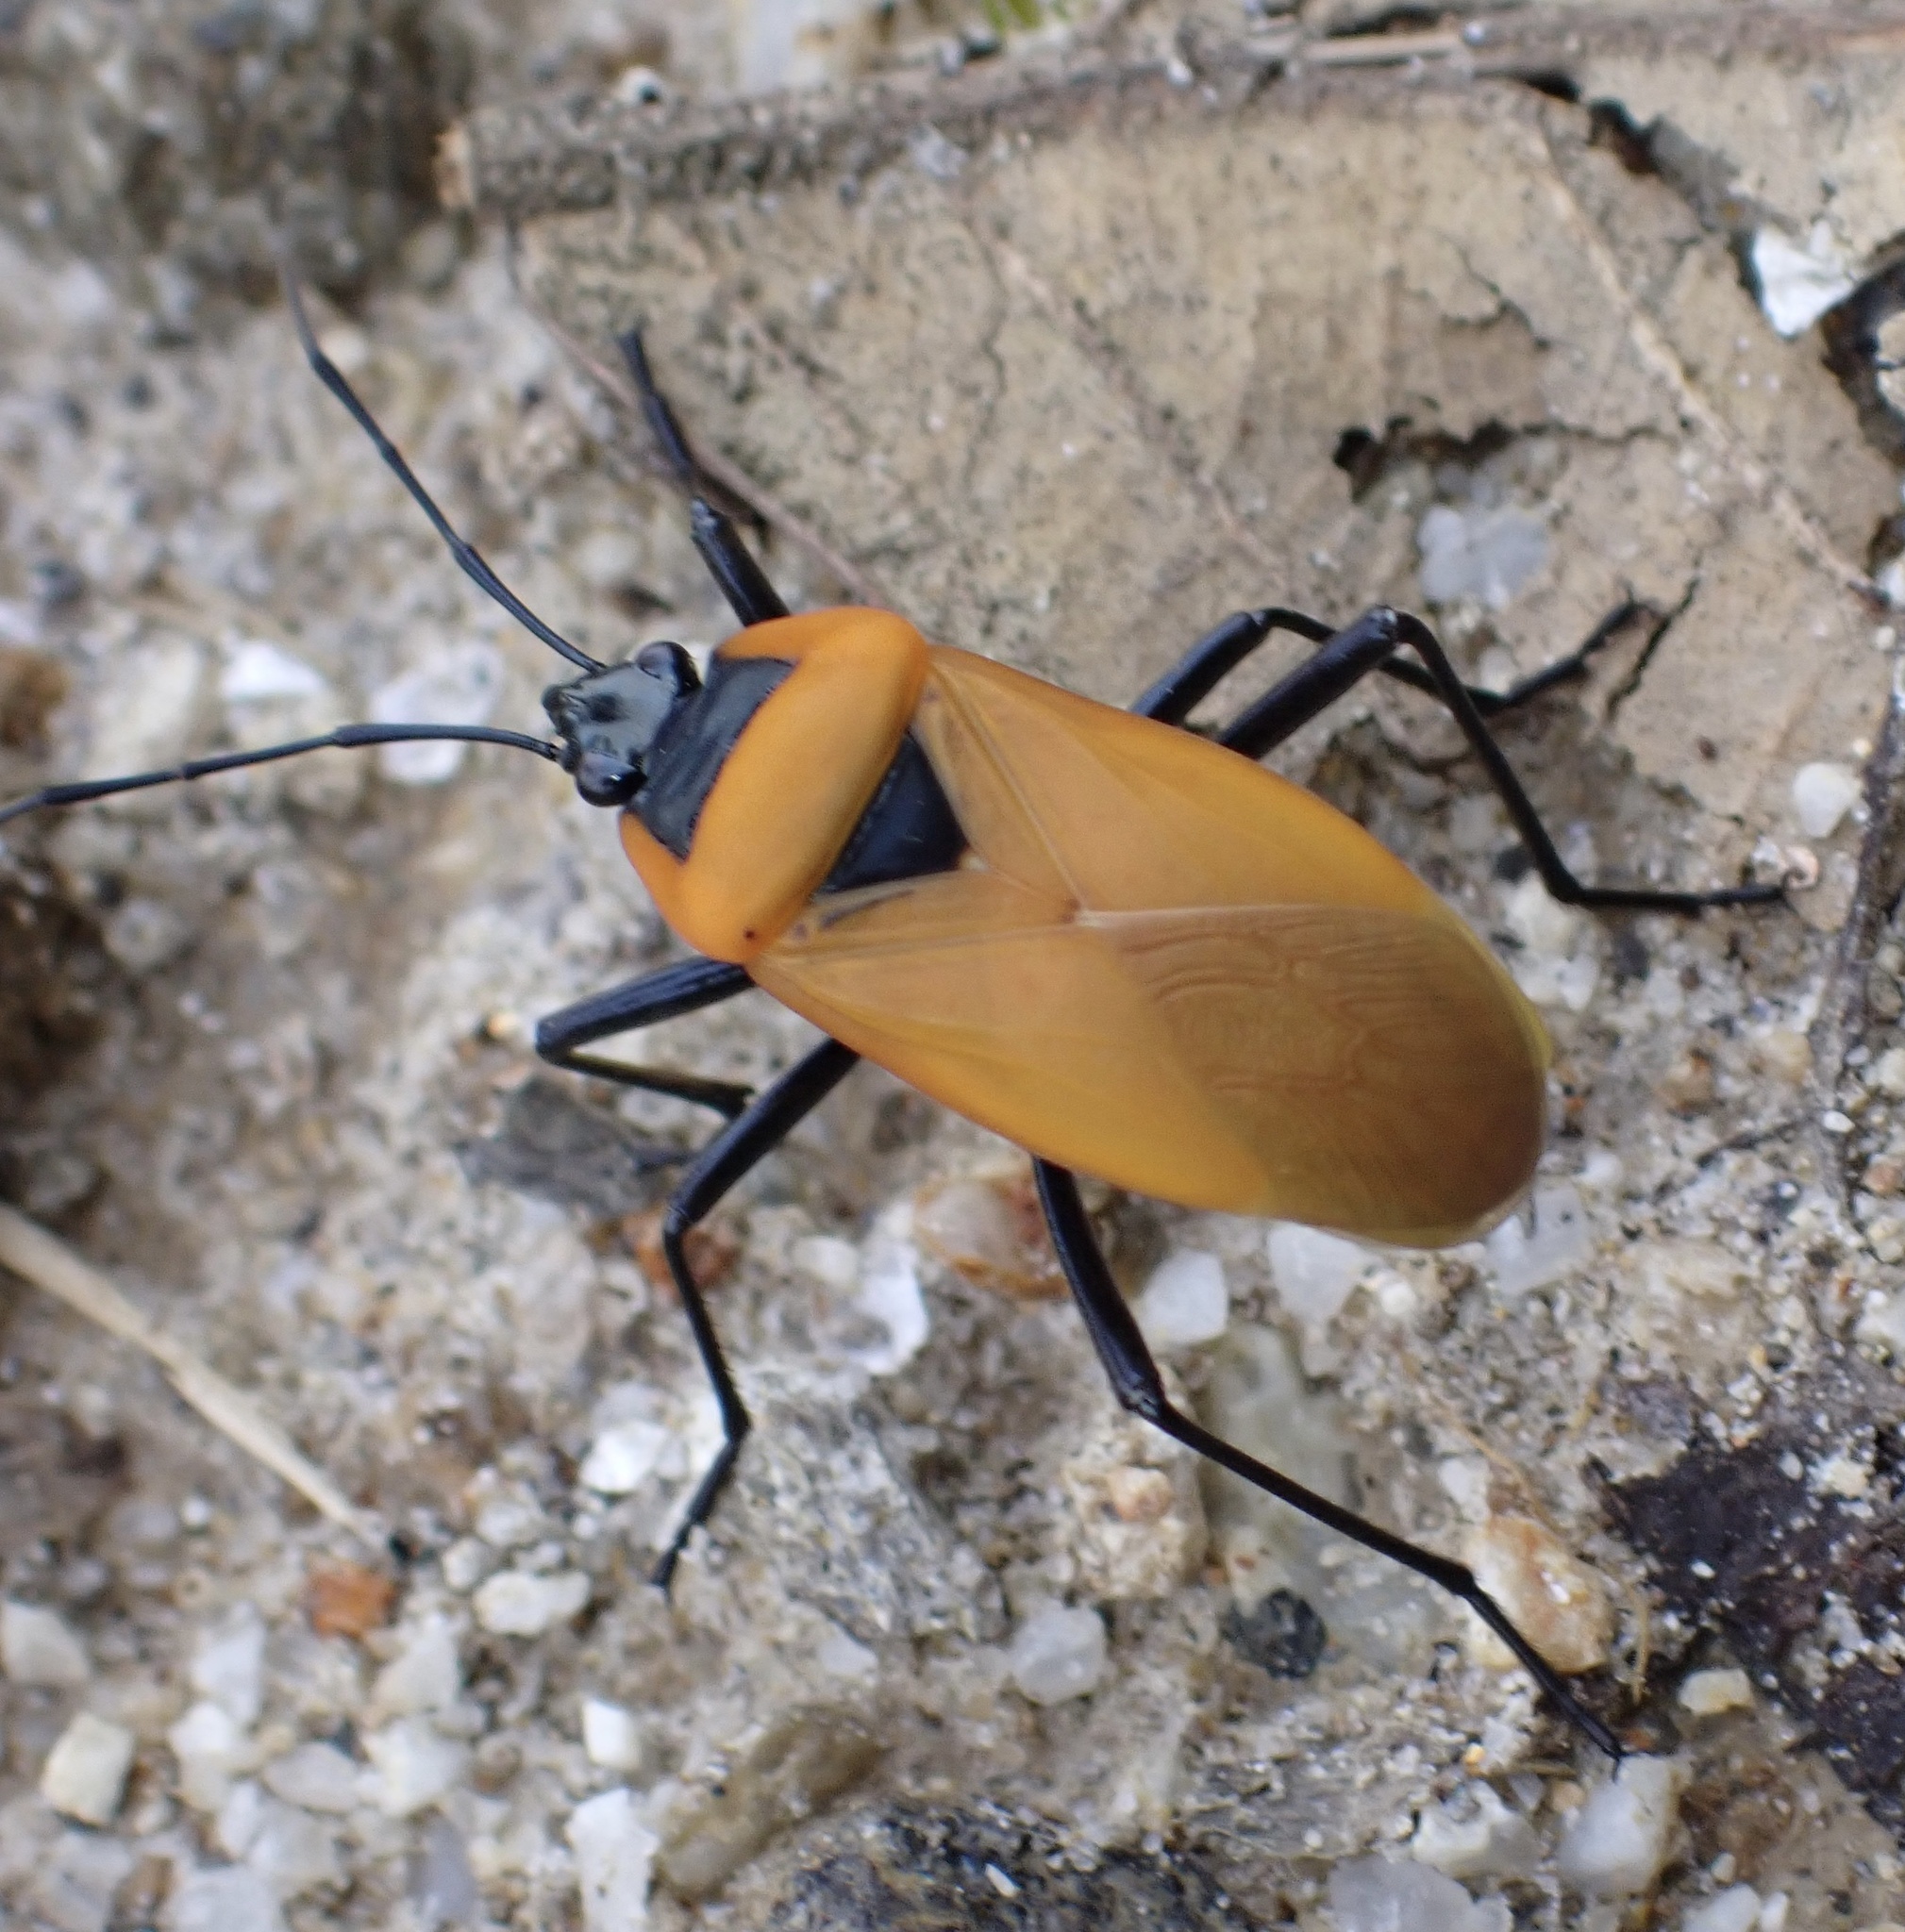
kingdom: Animalia
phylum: Arthropoda
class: Insecta
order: Hemiptera
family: Pyrrhocoridae
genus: Dindymus
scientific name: Dindymus
